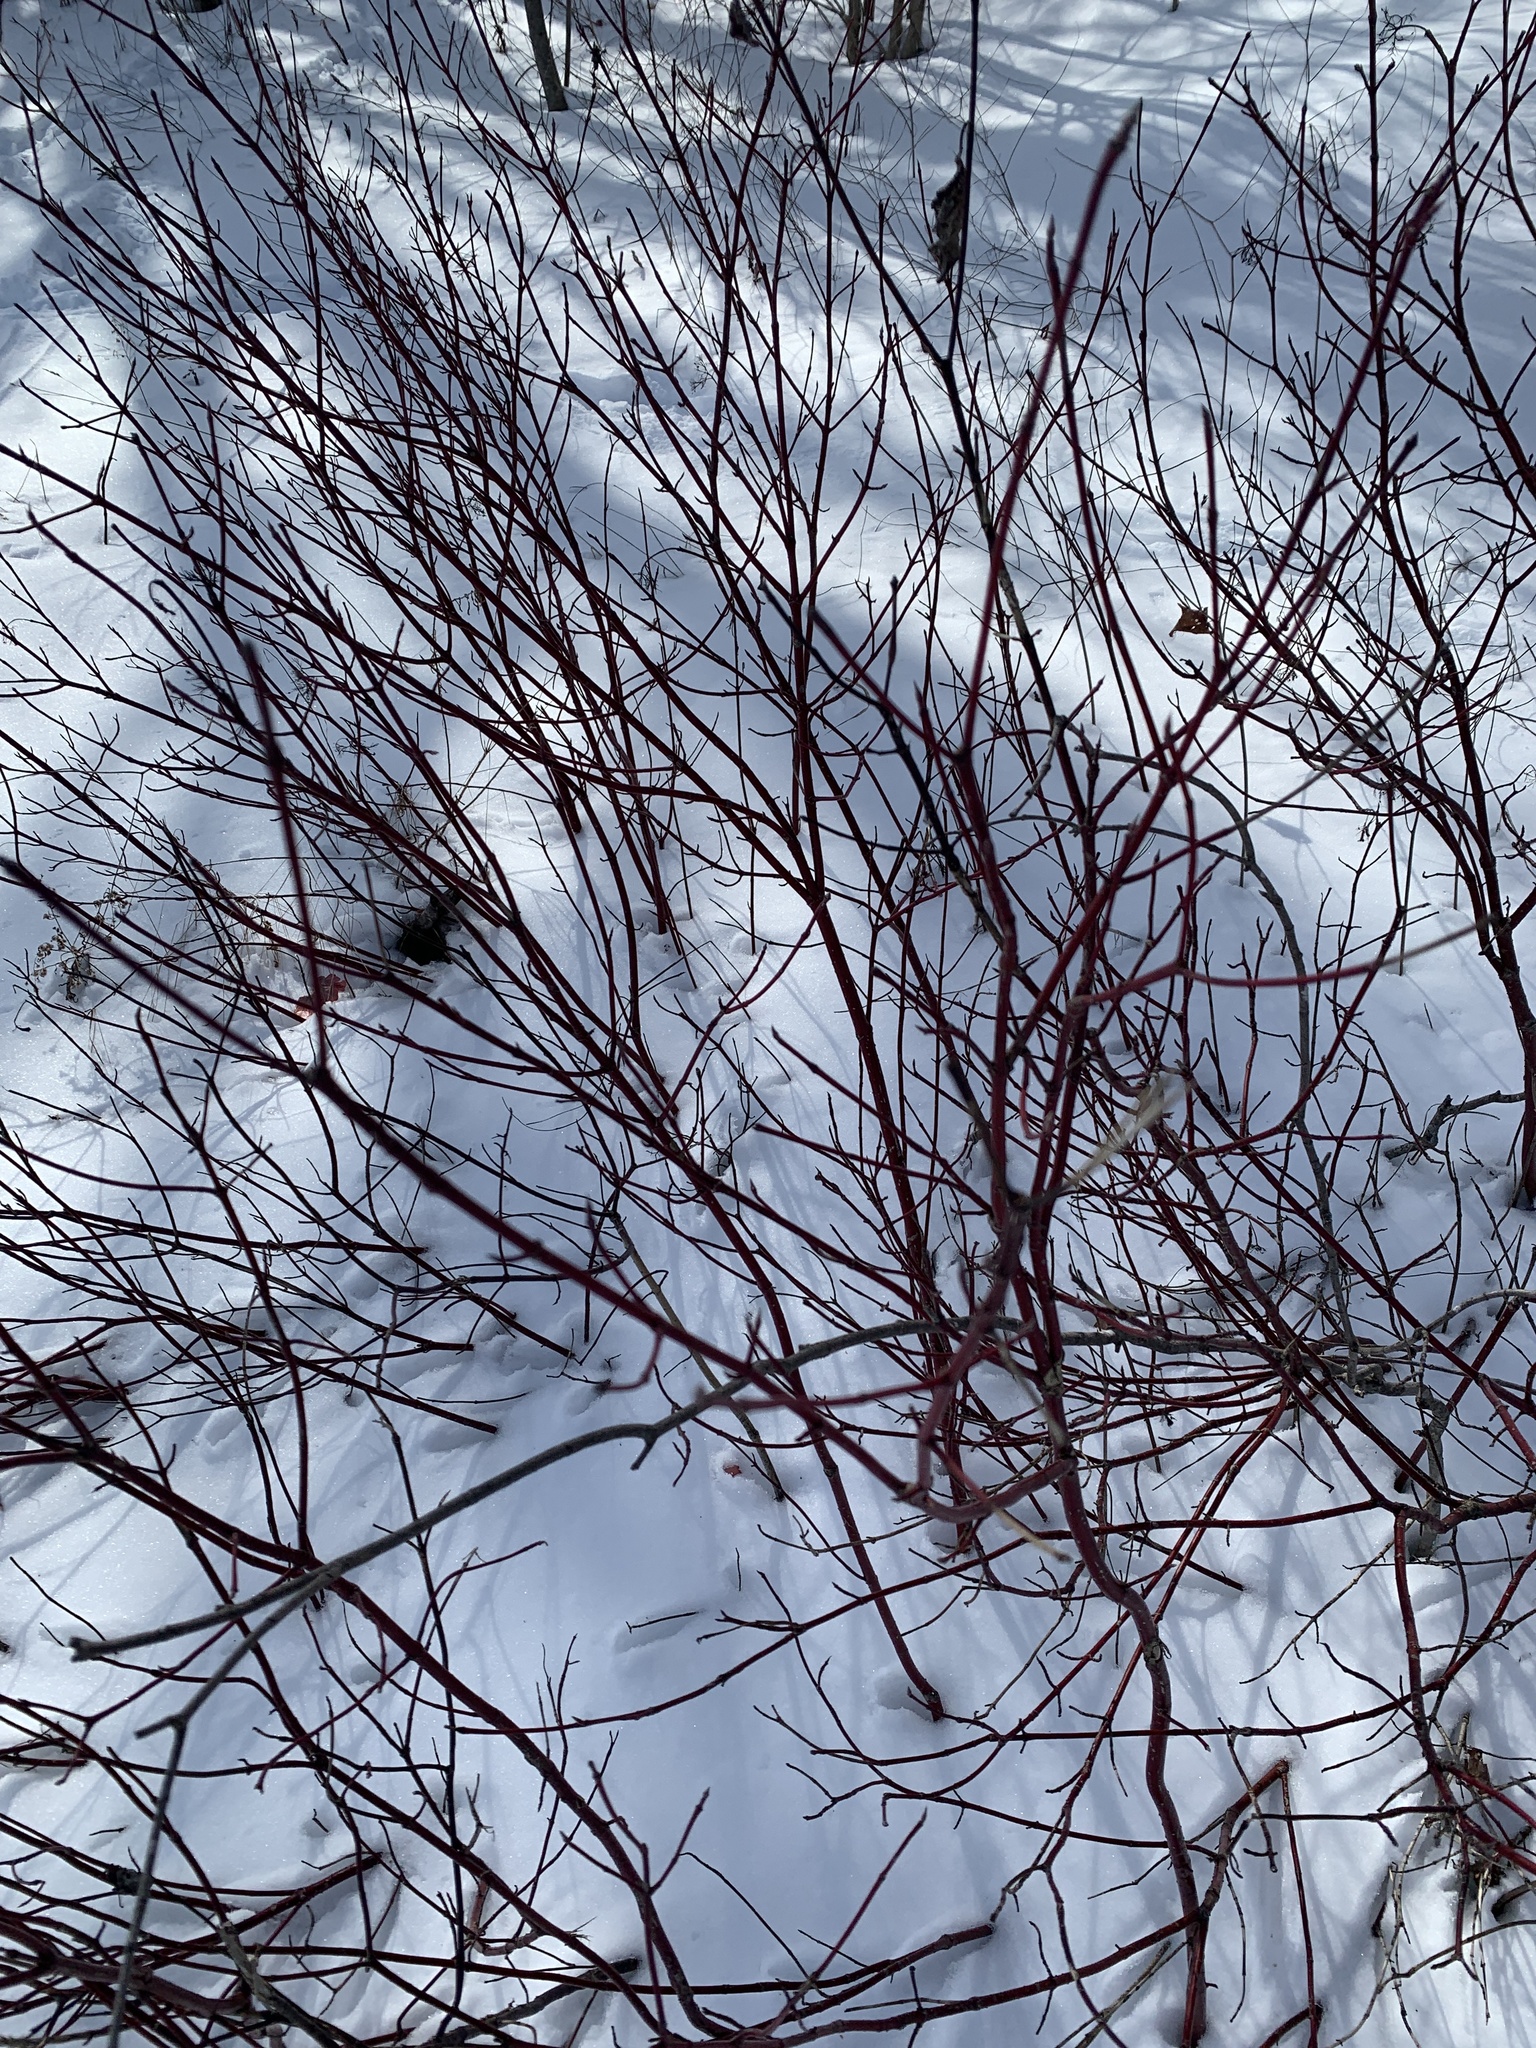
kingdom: Plantae
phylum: Tracheophyta
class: Magnoliopsida
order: Cornales
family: Cornaceae
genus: Cornus
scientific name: Cornus sericea
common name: Red-osier dogwood
